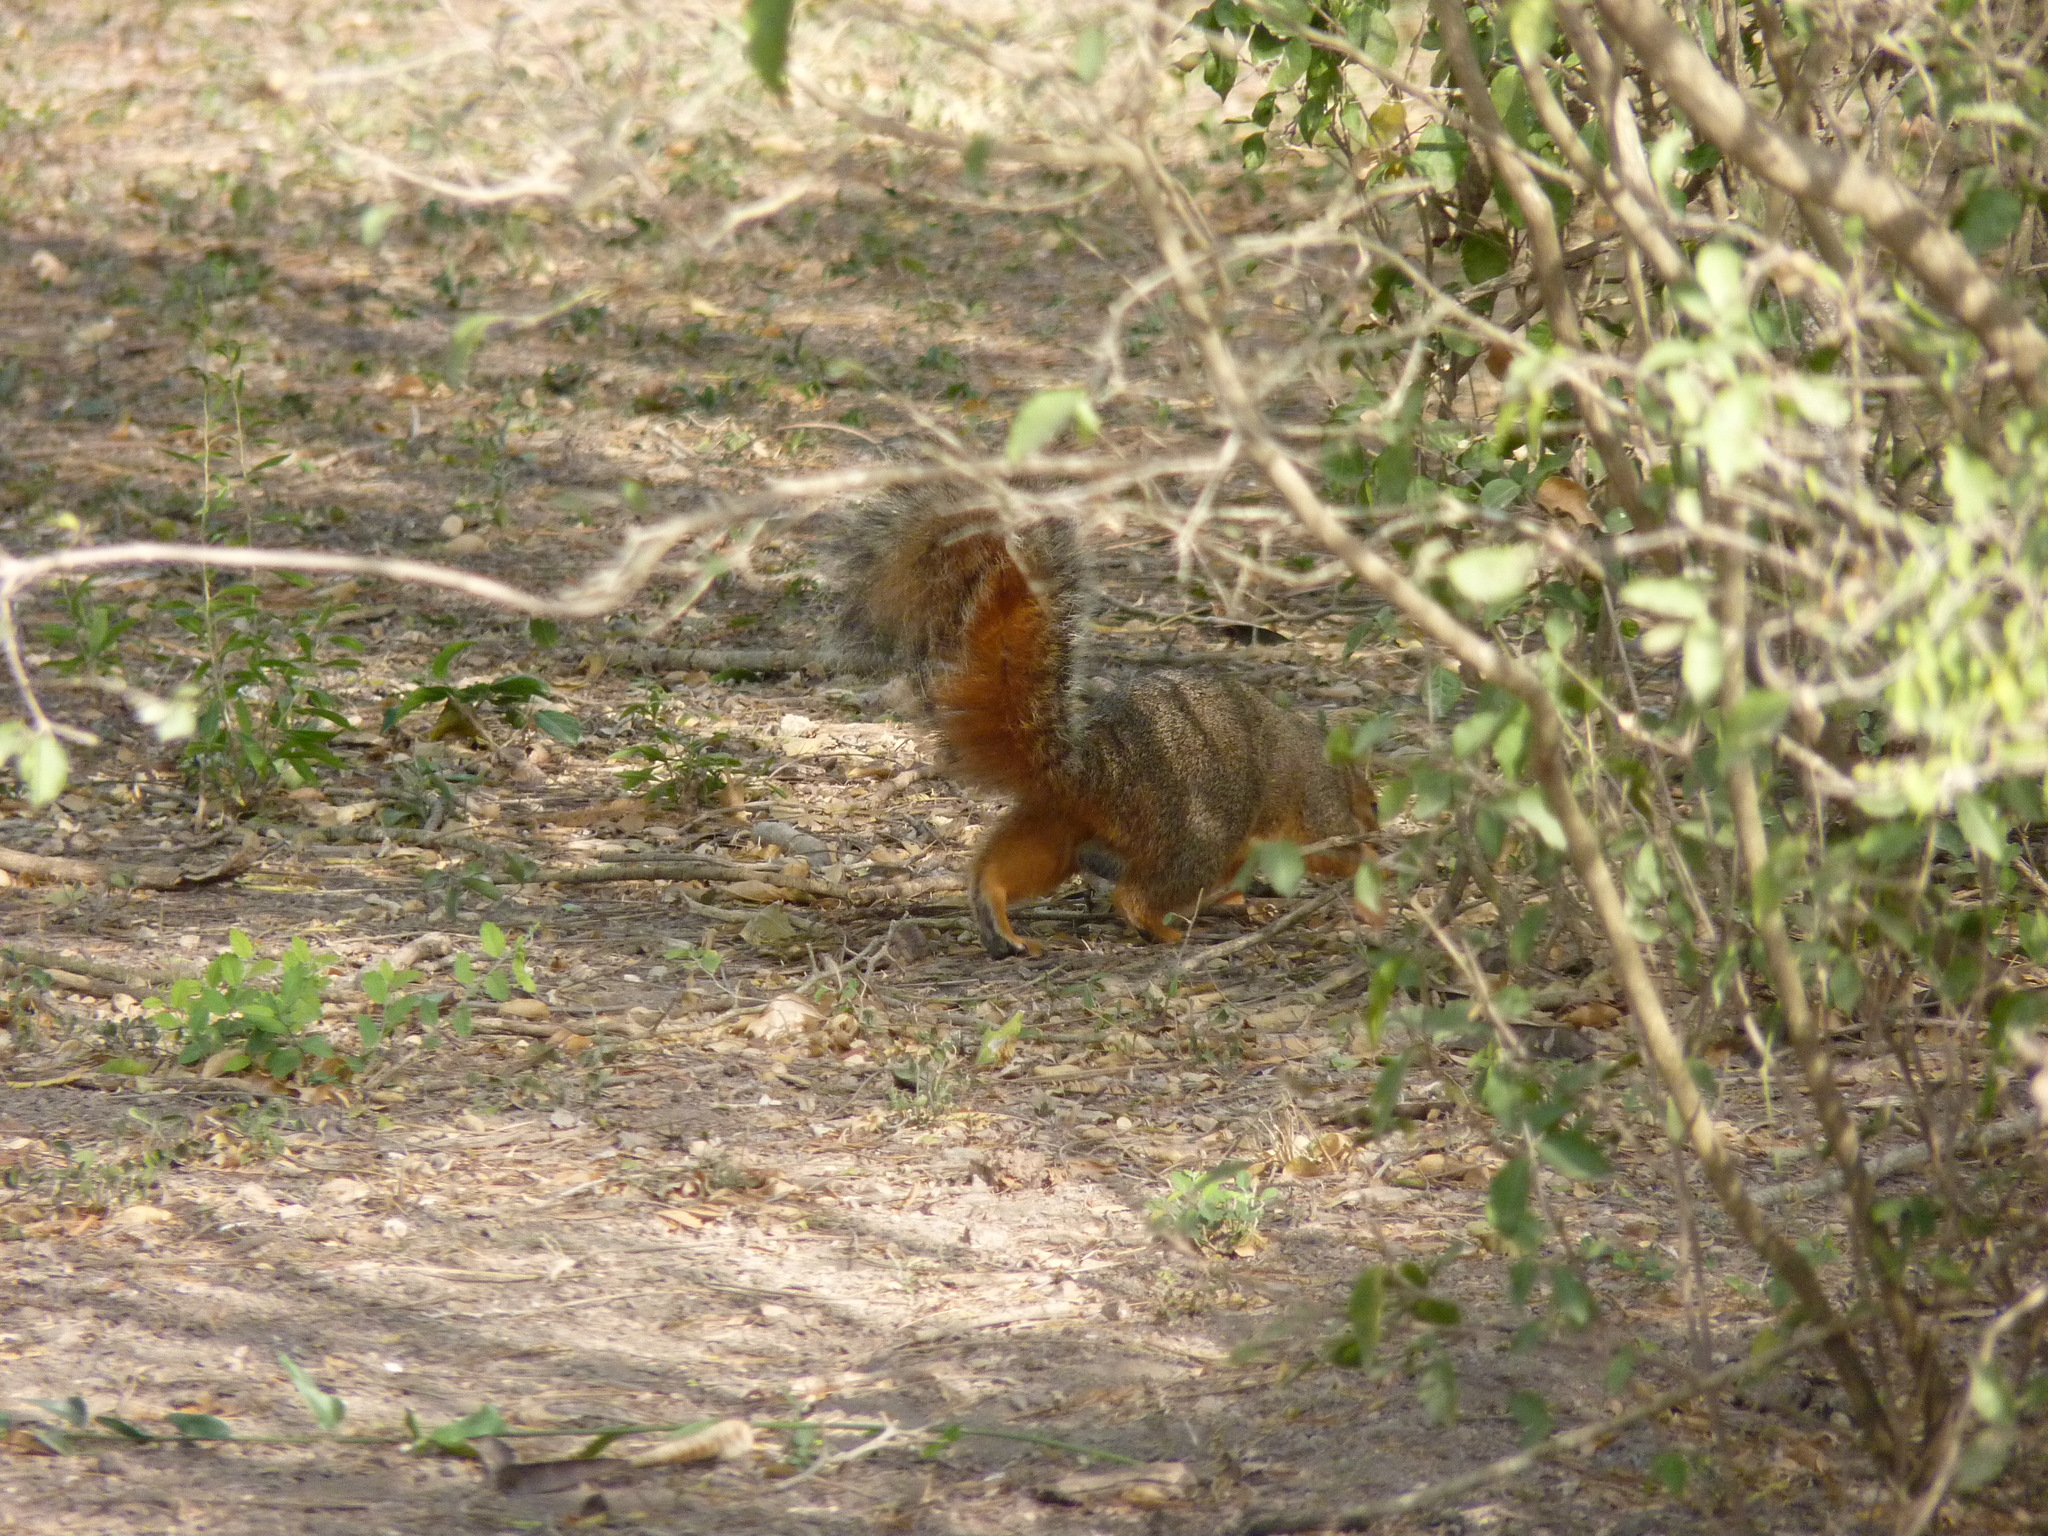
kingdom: Animalia
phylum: Chordata
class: Mammalia
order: Rodentia
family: Sciuridae
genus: Sciurus
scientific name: Sciurus niger
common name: Fox squirrel
